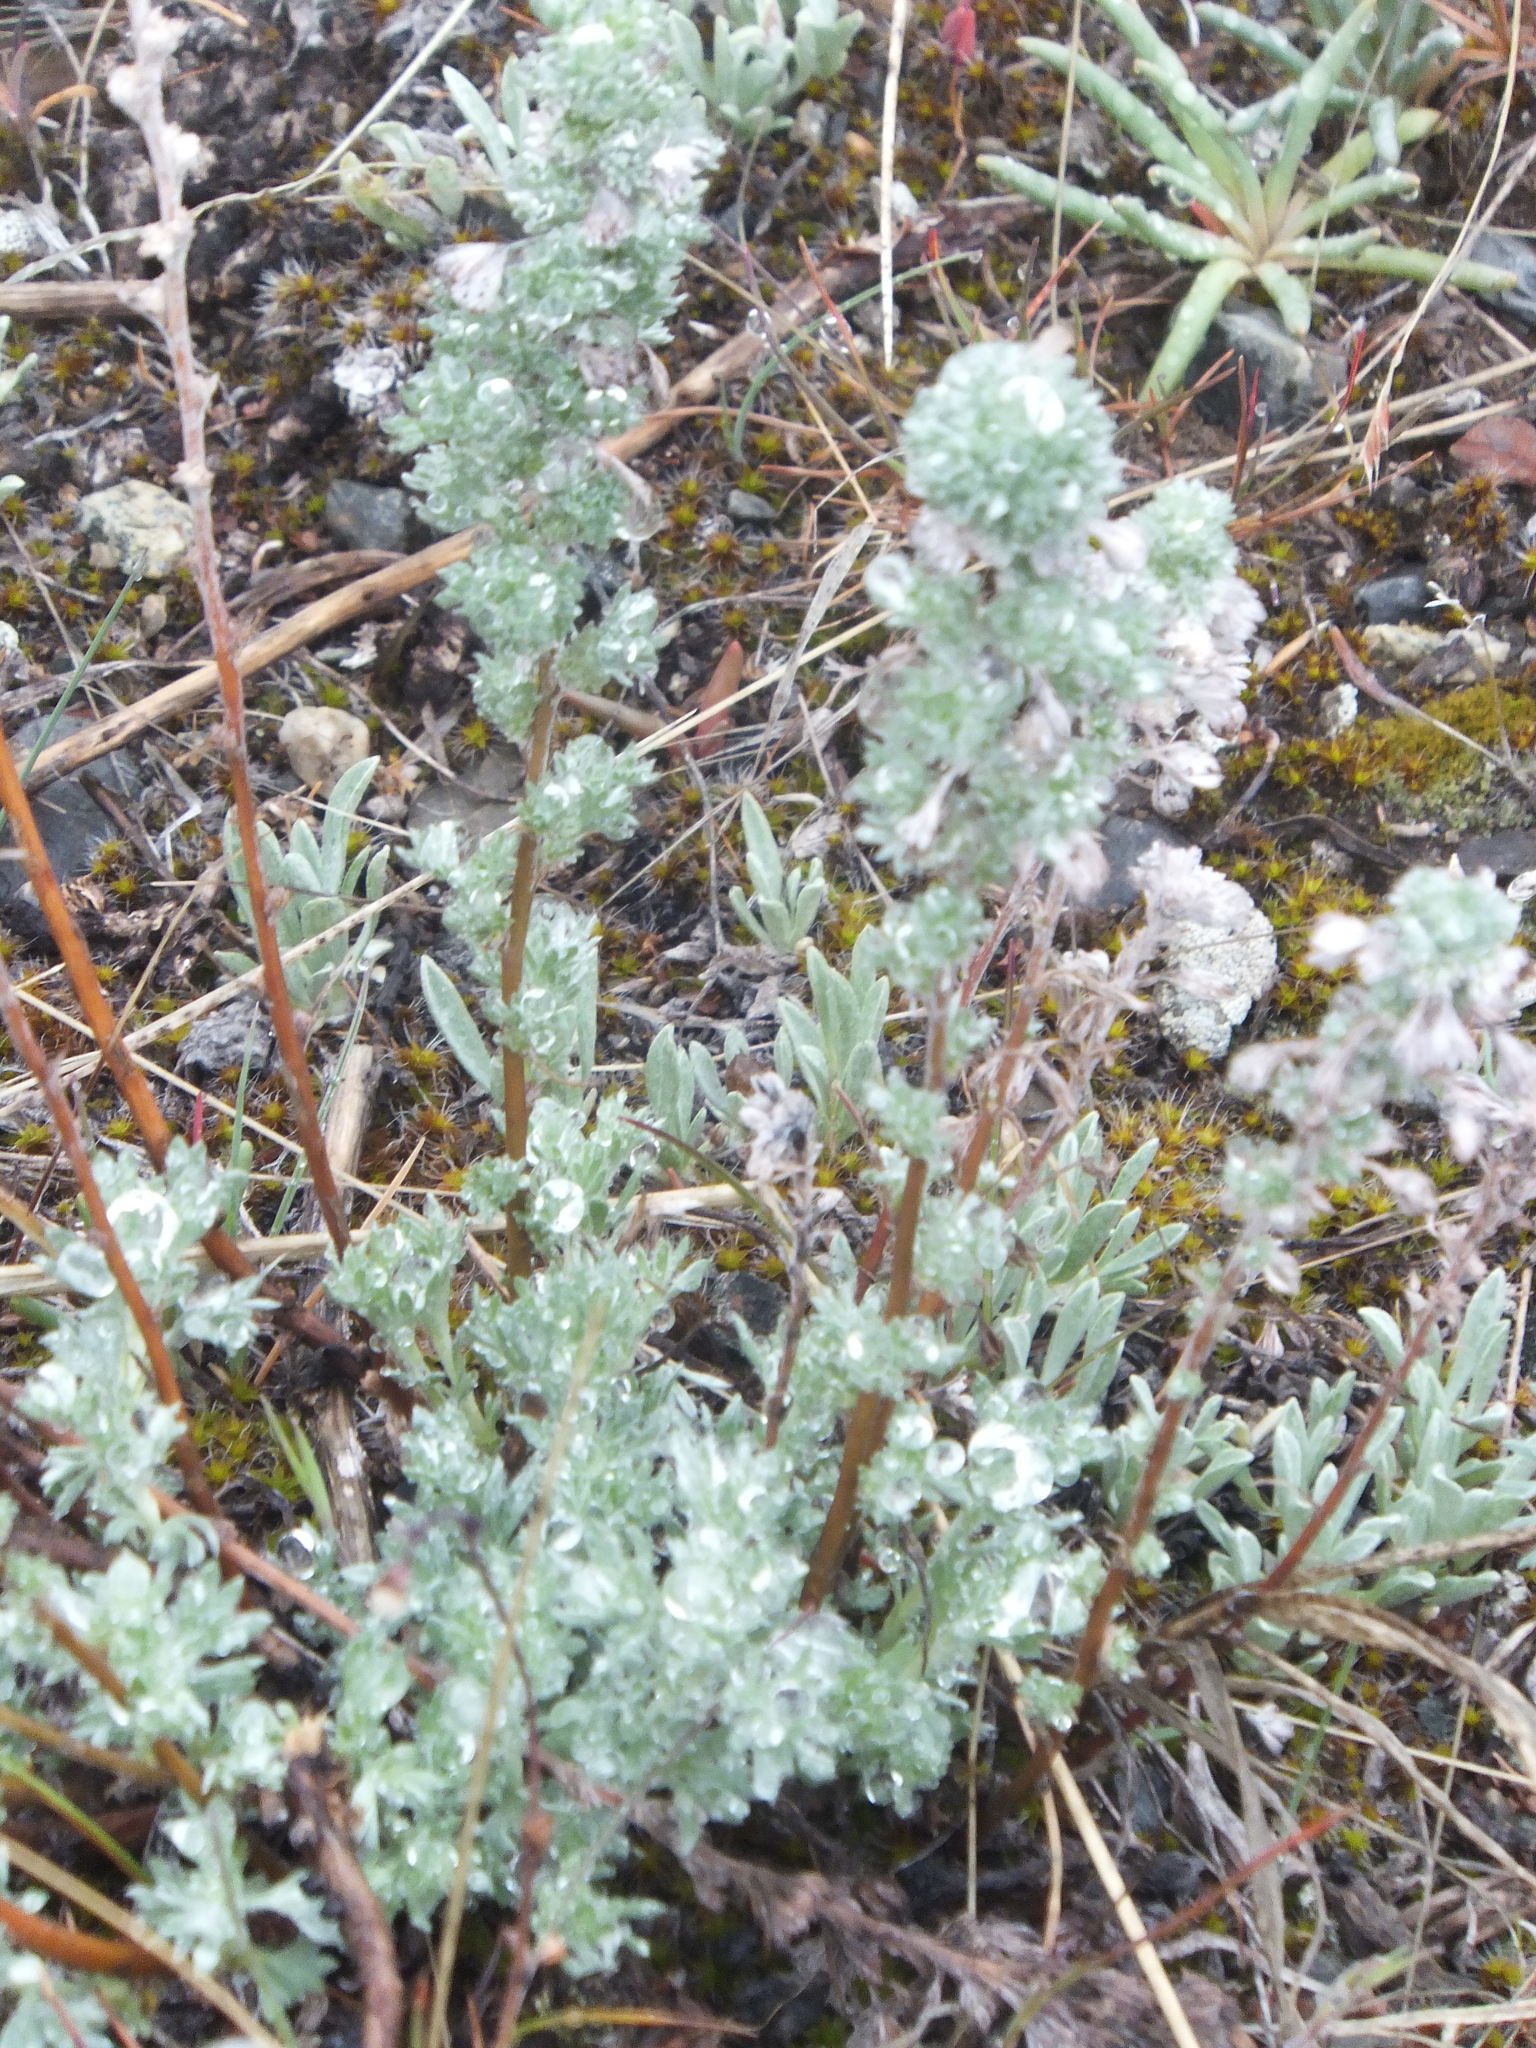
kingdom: Plantae
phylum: Tracheophyta
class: Magnoliopsida
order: Asterales
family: Asteraceae
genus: Artemisia
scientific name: Artemisia frigida
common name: Prairie sagewort
